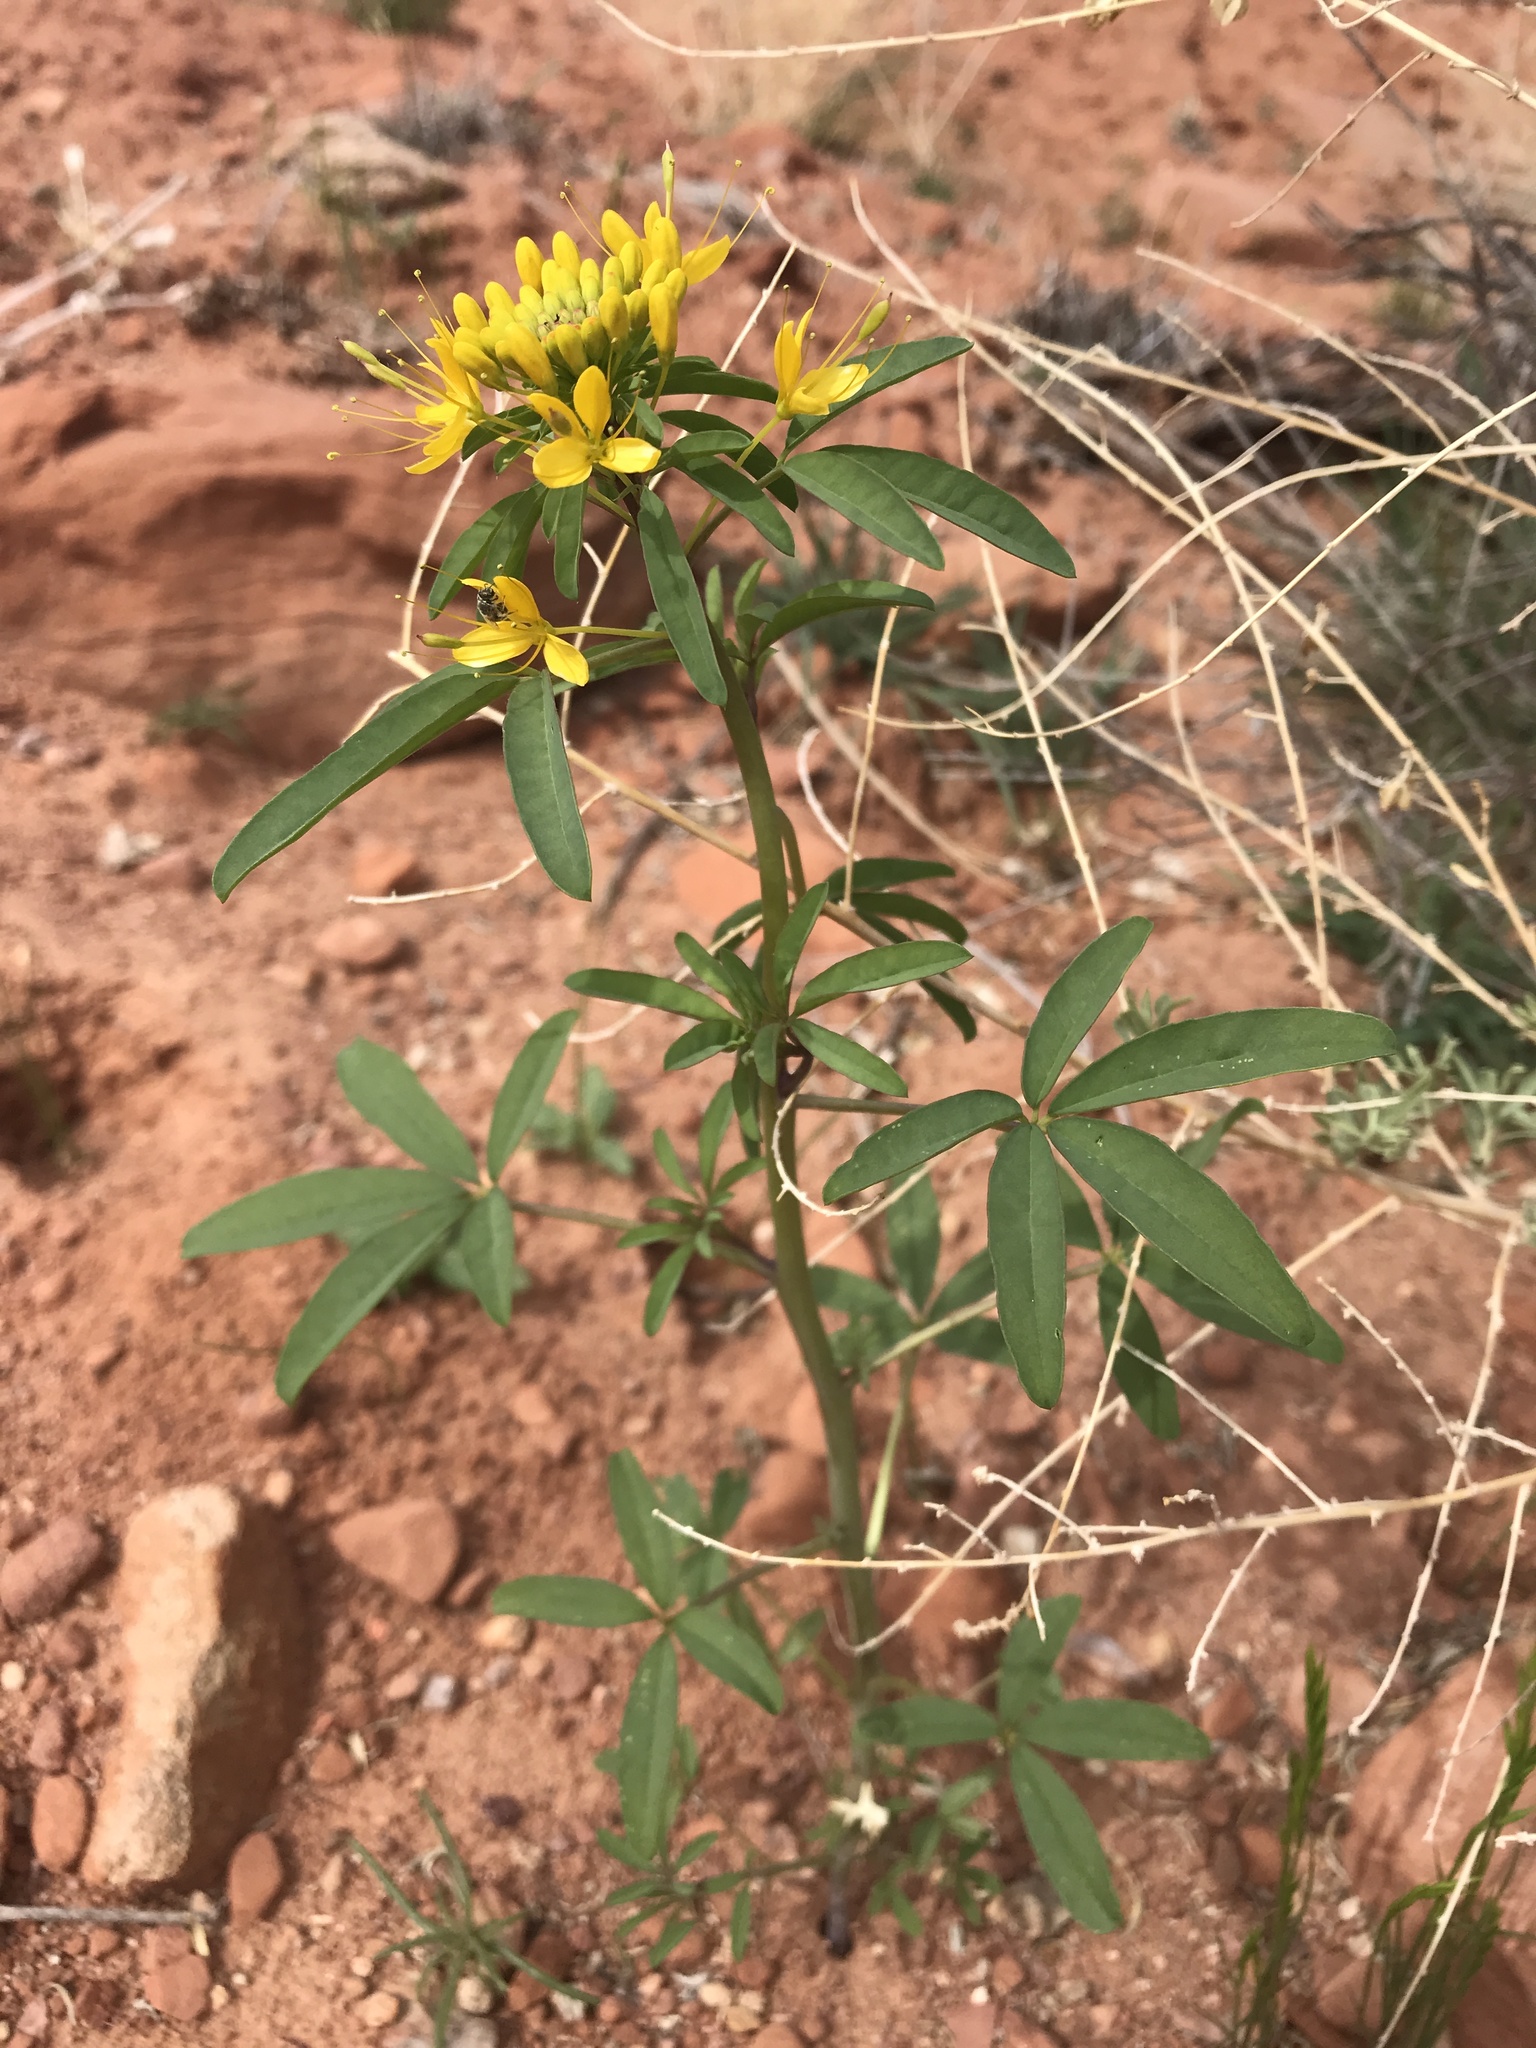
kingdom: Plantae
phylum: Tracheophyta
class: Magnoliopsida
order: Brassicales
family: Cleomaceae
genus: Cleomella
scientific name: Cleomella lutea
